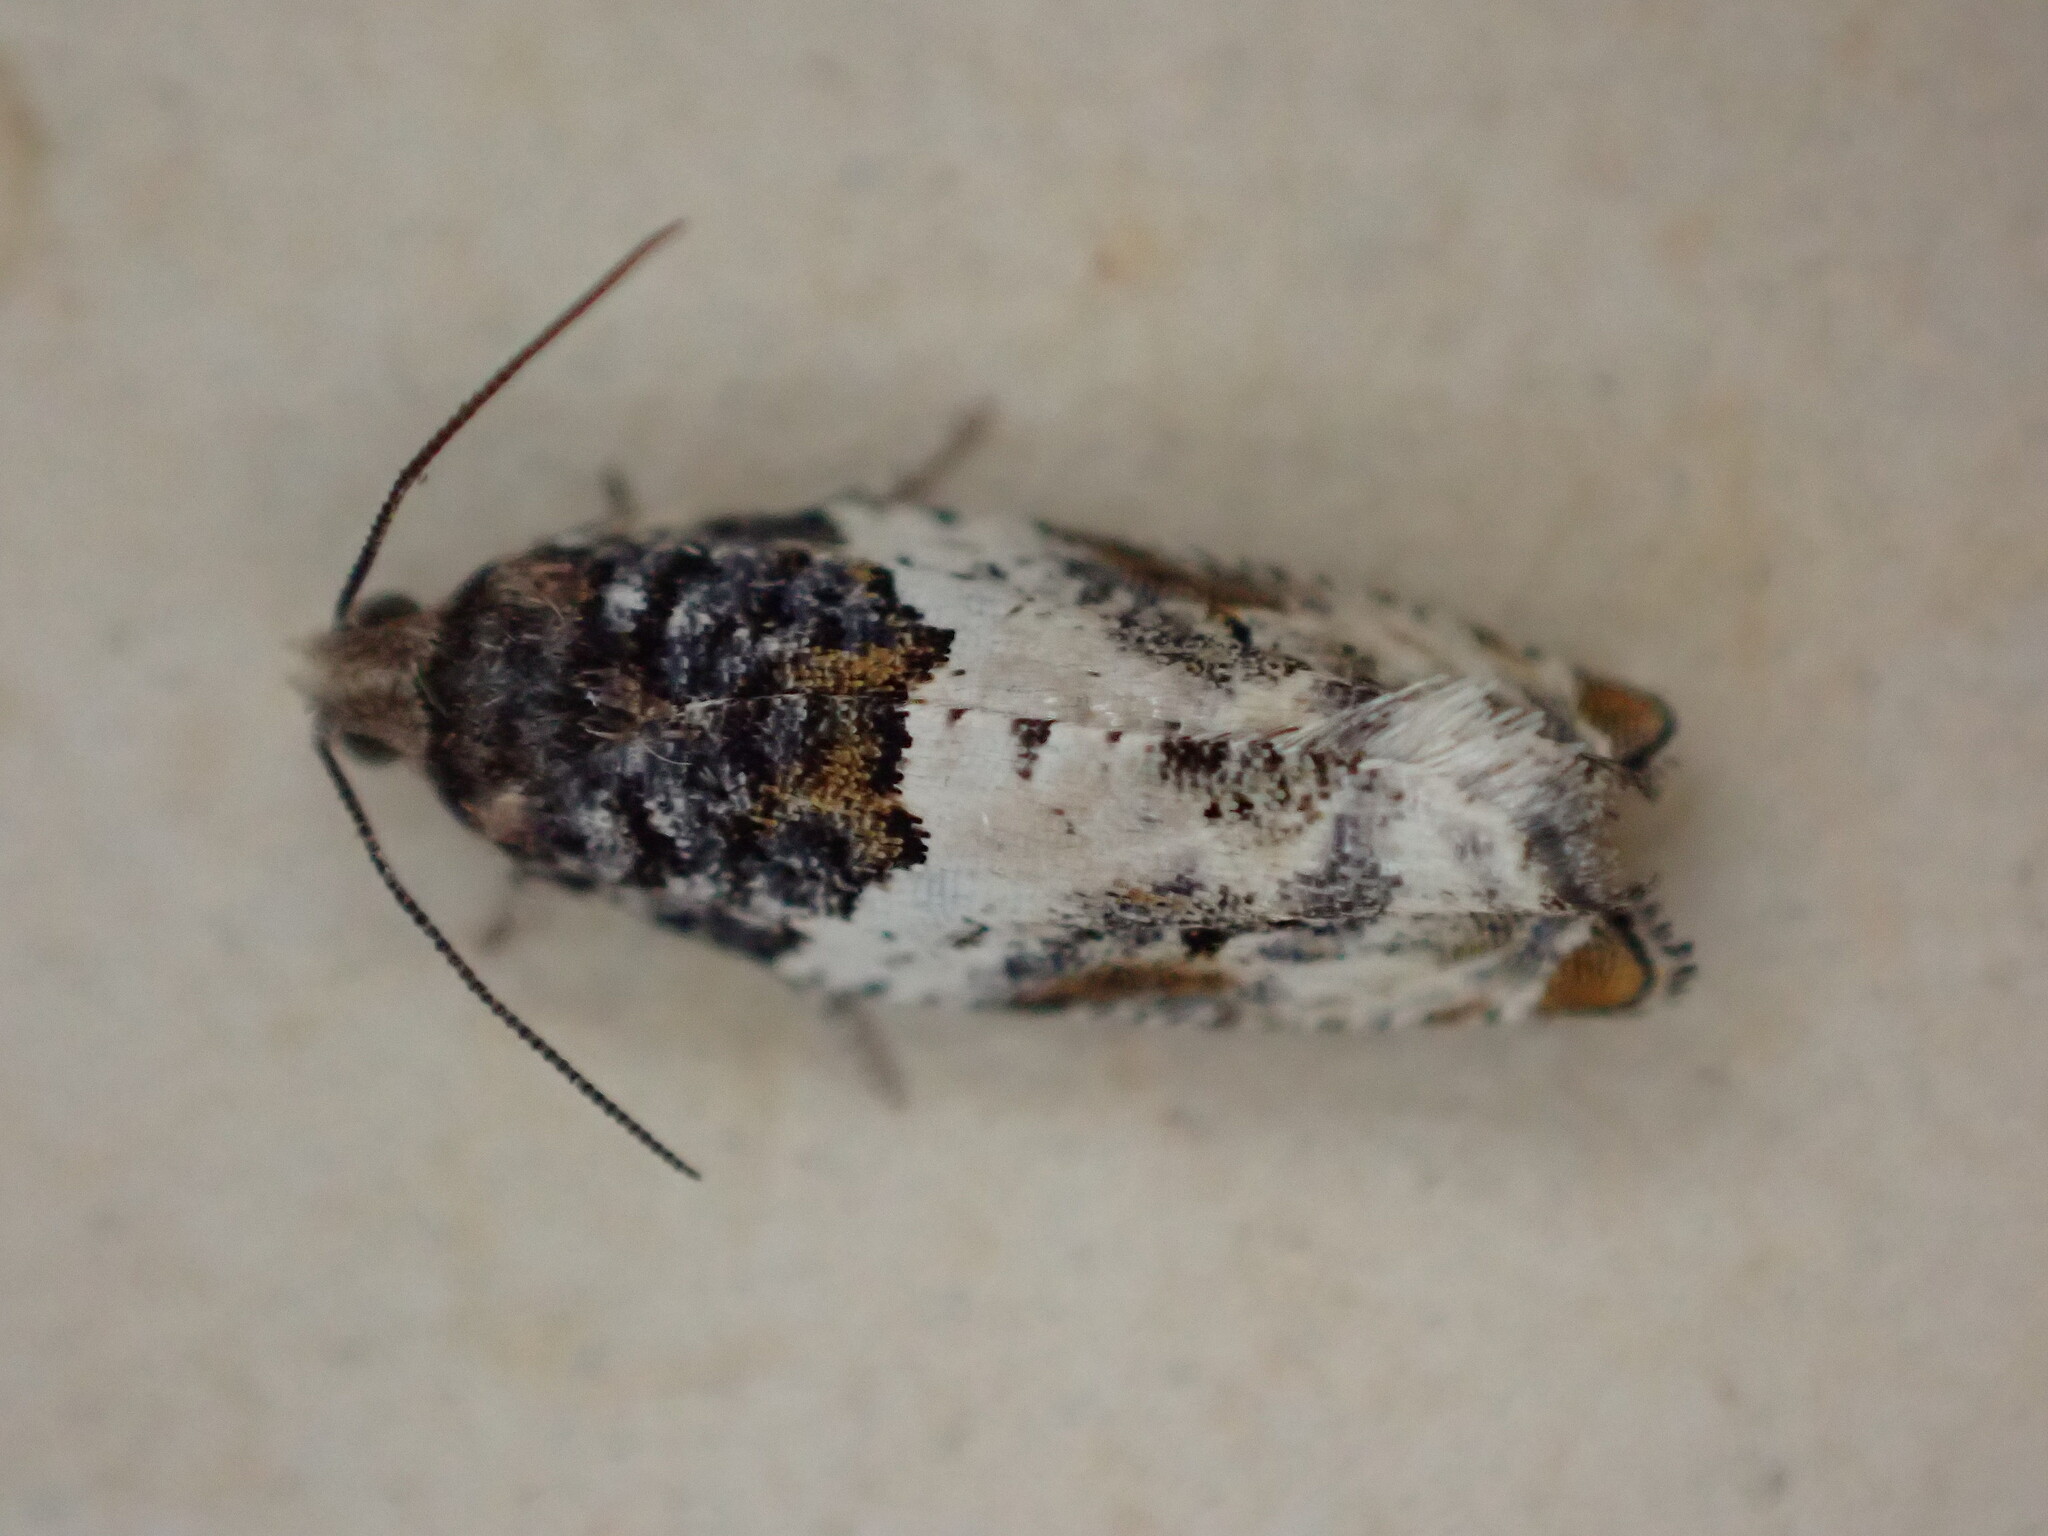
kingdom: Animalia
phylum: Arthropoda
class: Insecta
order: Lepidoptera
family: Tortricidae
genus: Gypsonoma
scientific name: Gypsonoma dealbana
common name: Common cloaked shoot
